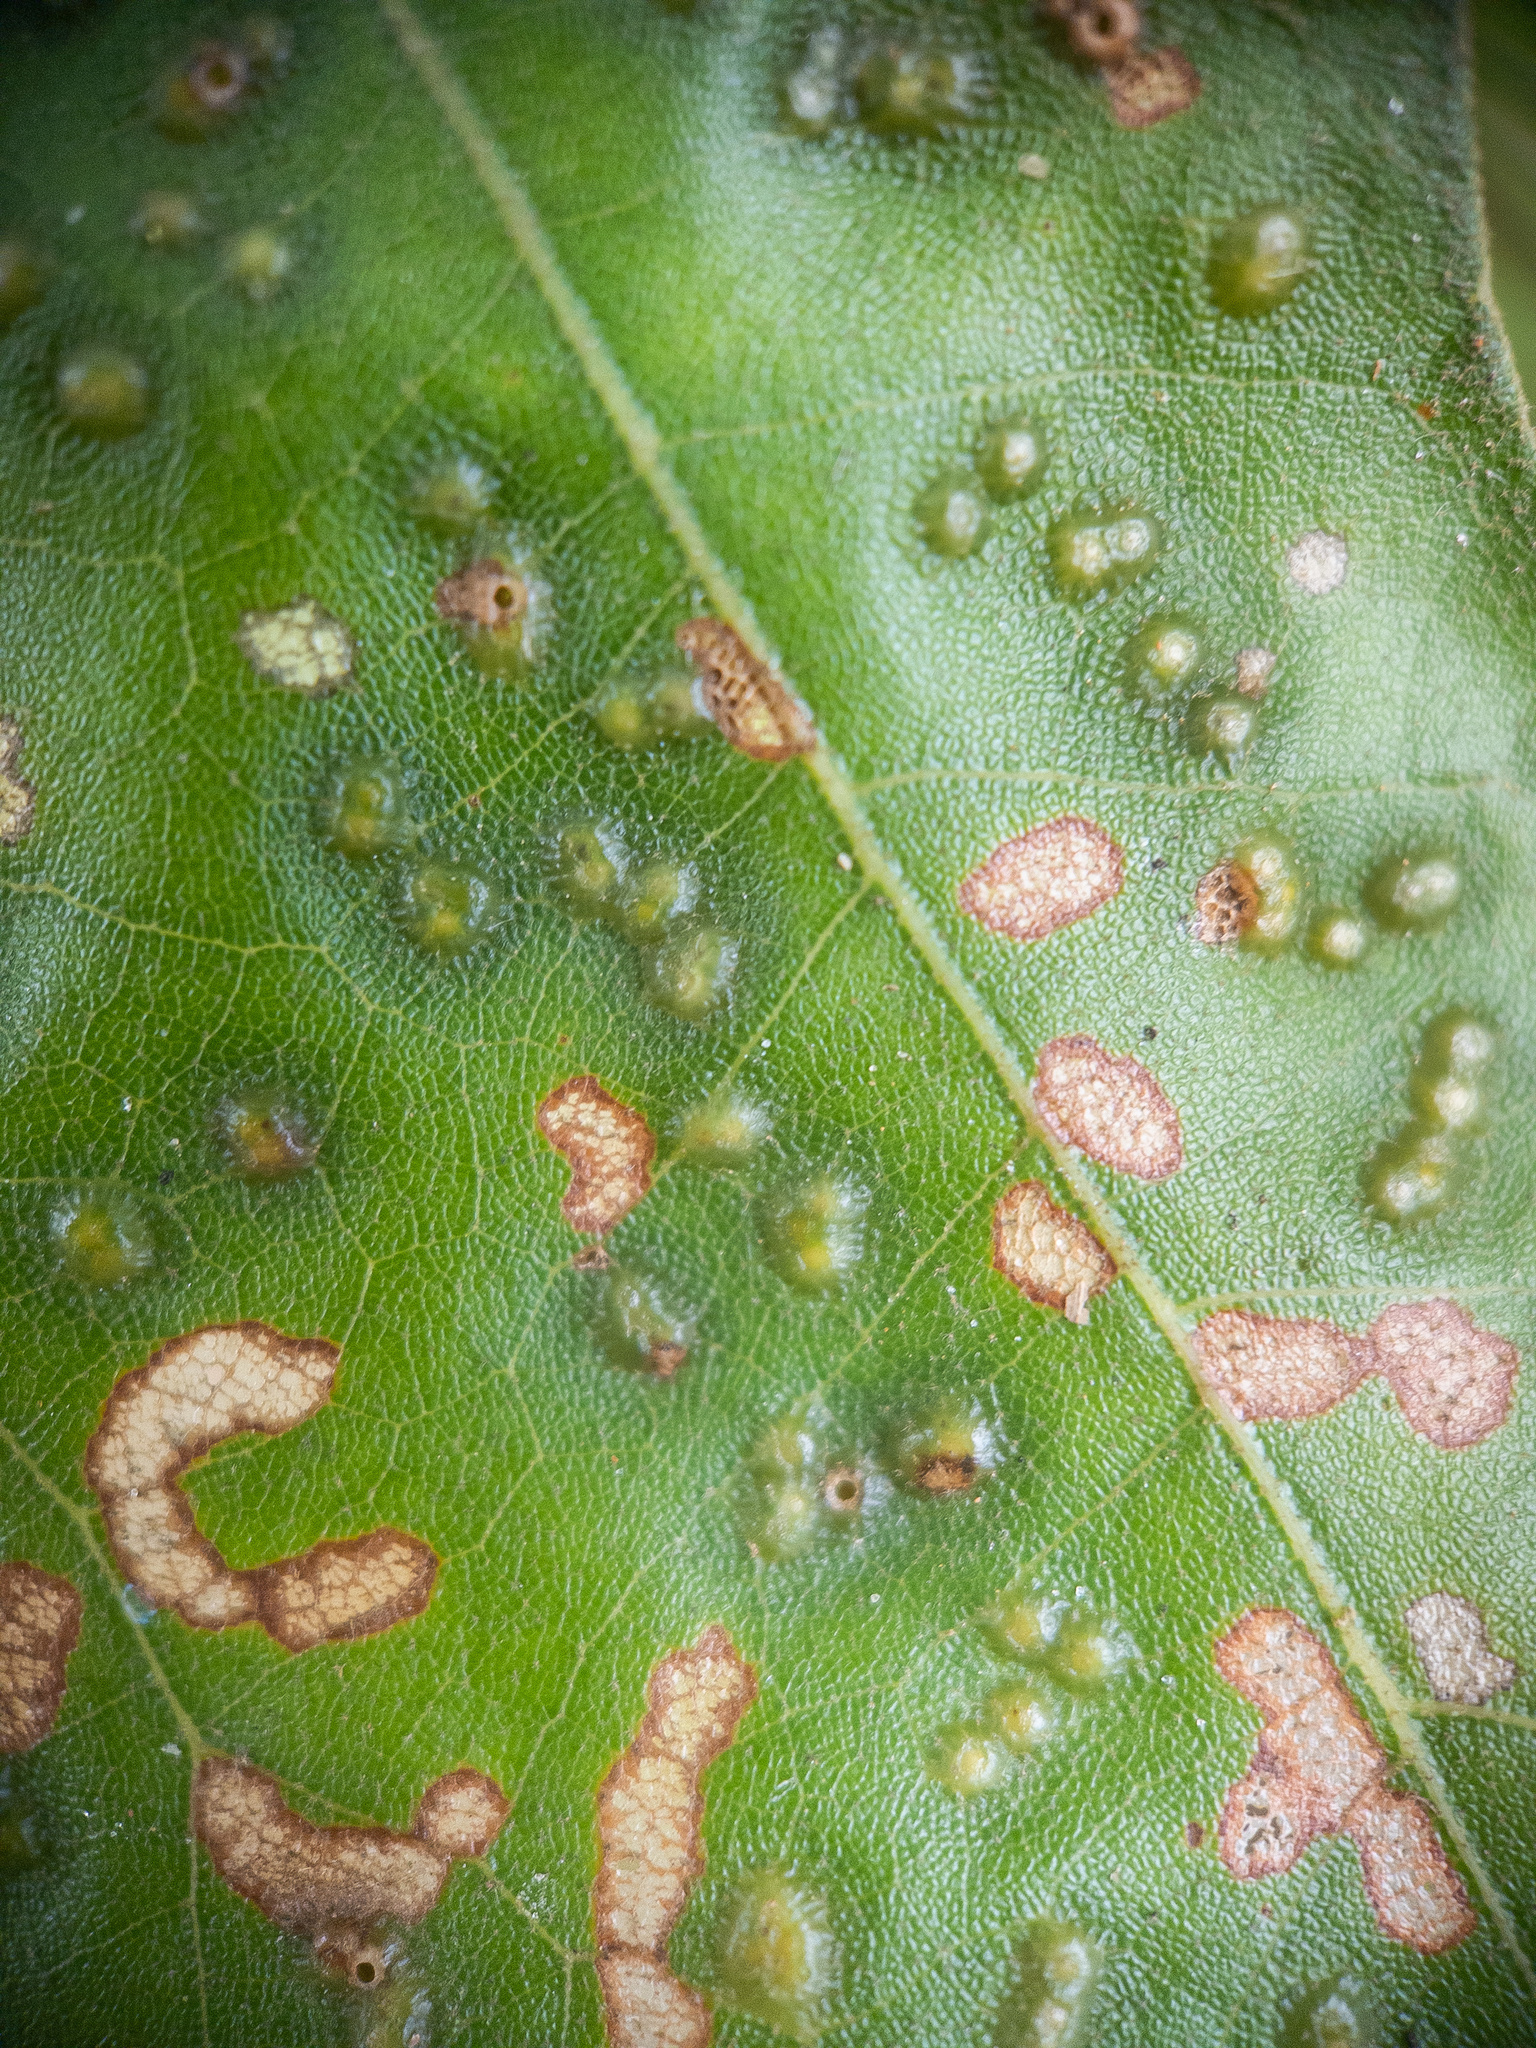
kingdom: Animalia
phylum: Arthropoda
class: Insecta
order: Hymenoptera
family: Cynipidae
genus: Callirhytis
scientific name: Callirhytis
